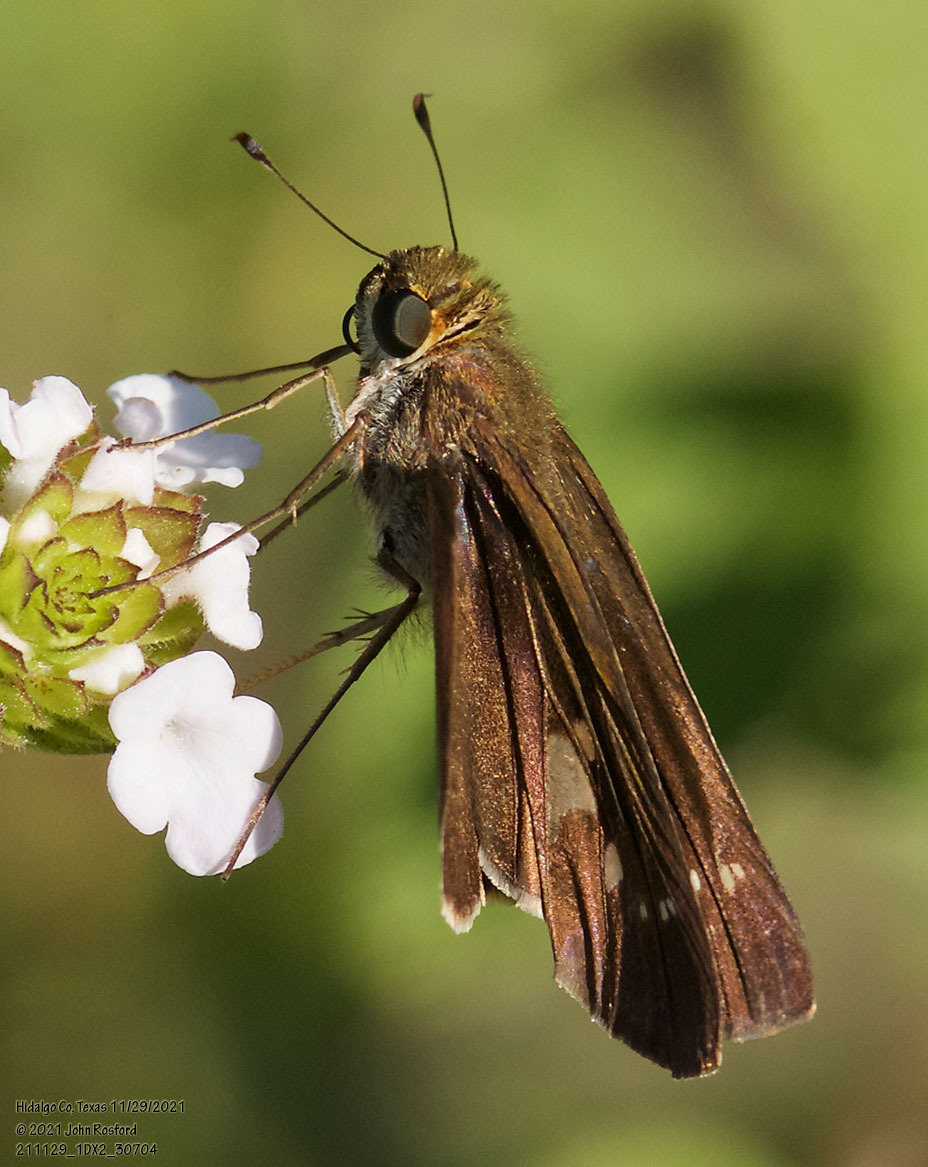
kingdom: Animalia
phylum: Arthropoda
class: Insecta
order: Lepidoptera
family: Hesperiidae
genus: Turesis
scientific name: Turesis lucas
